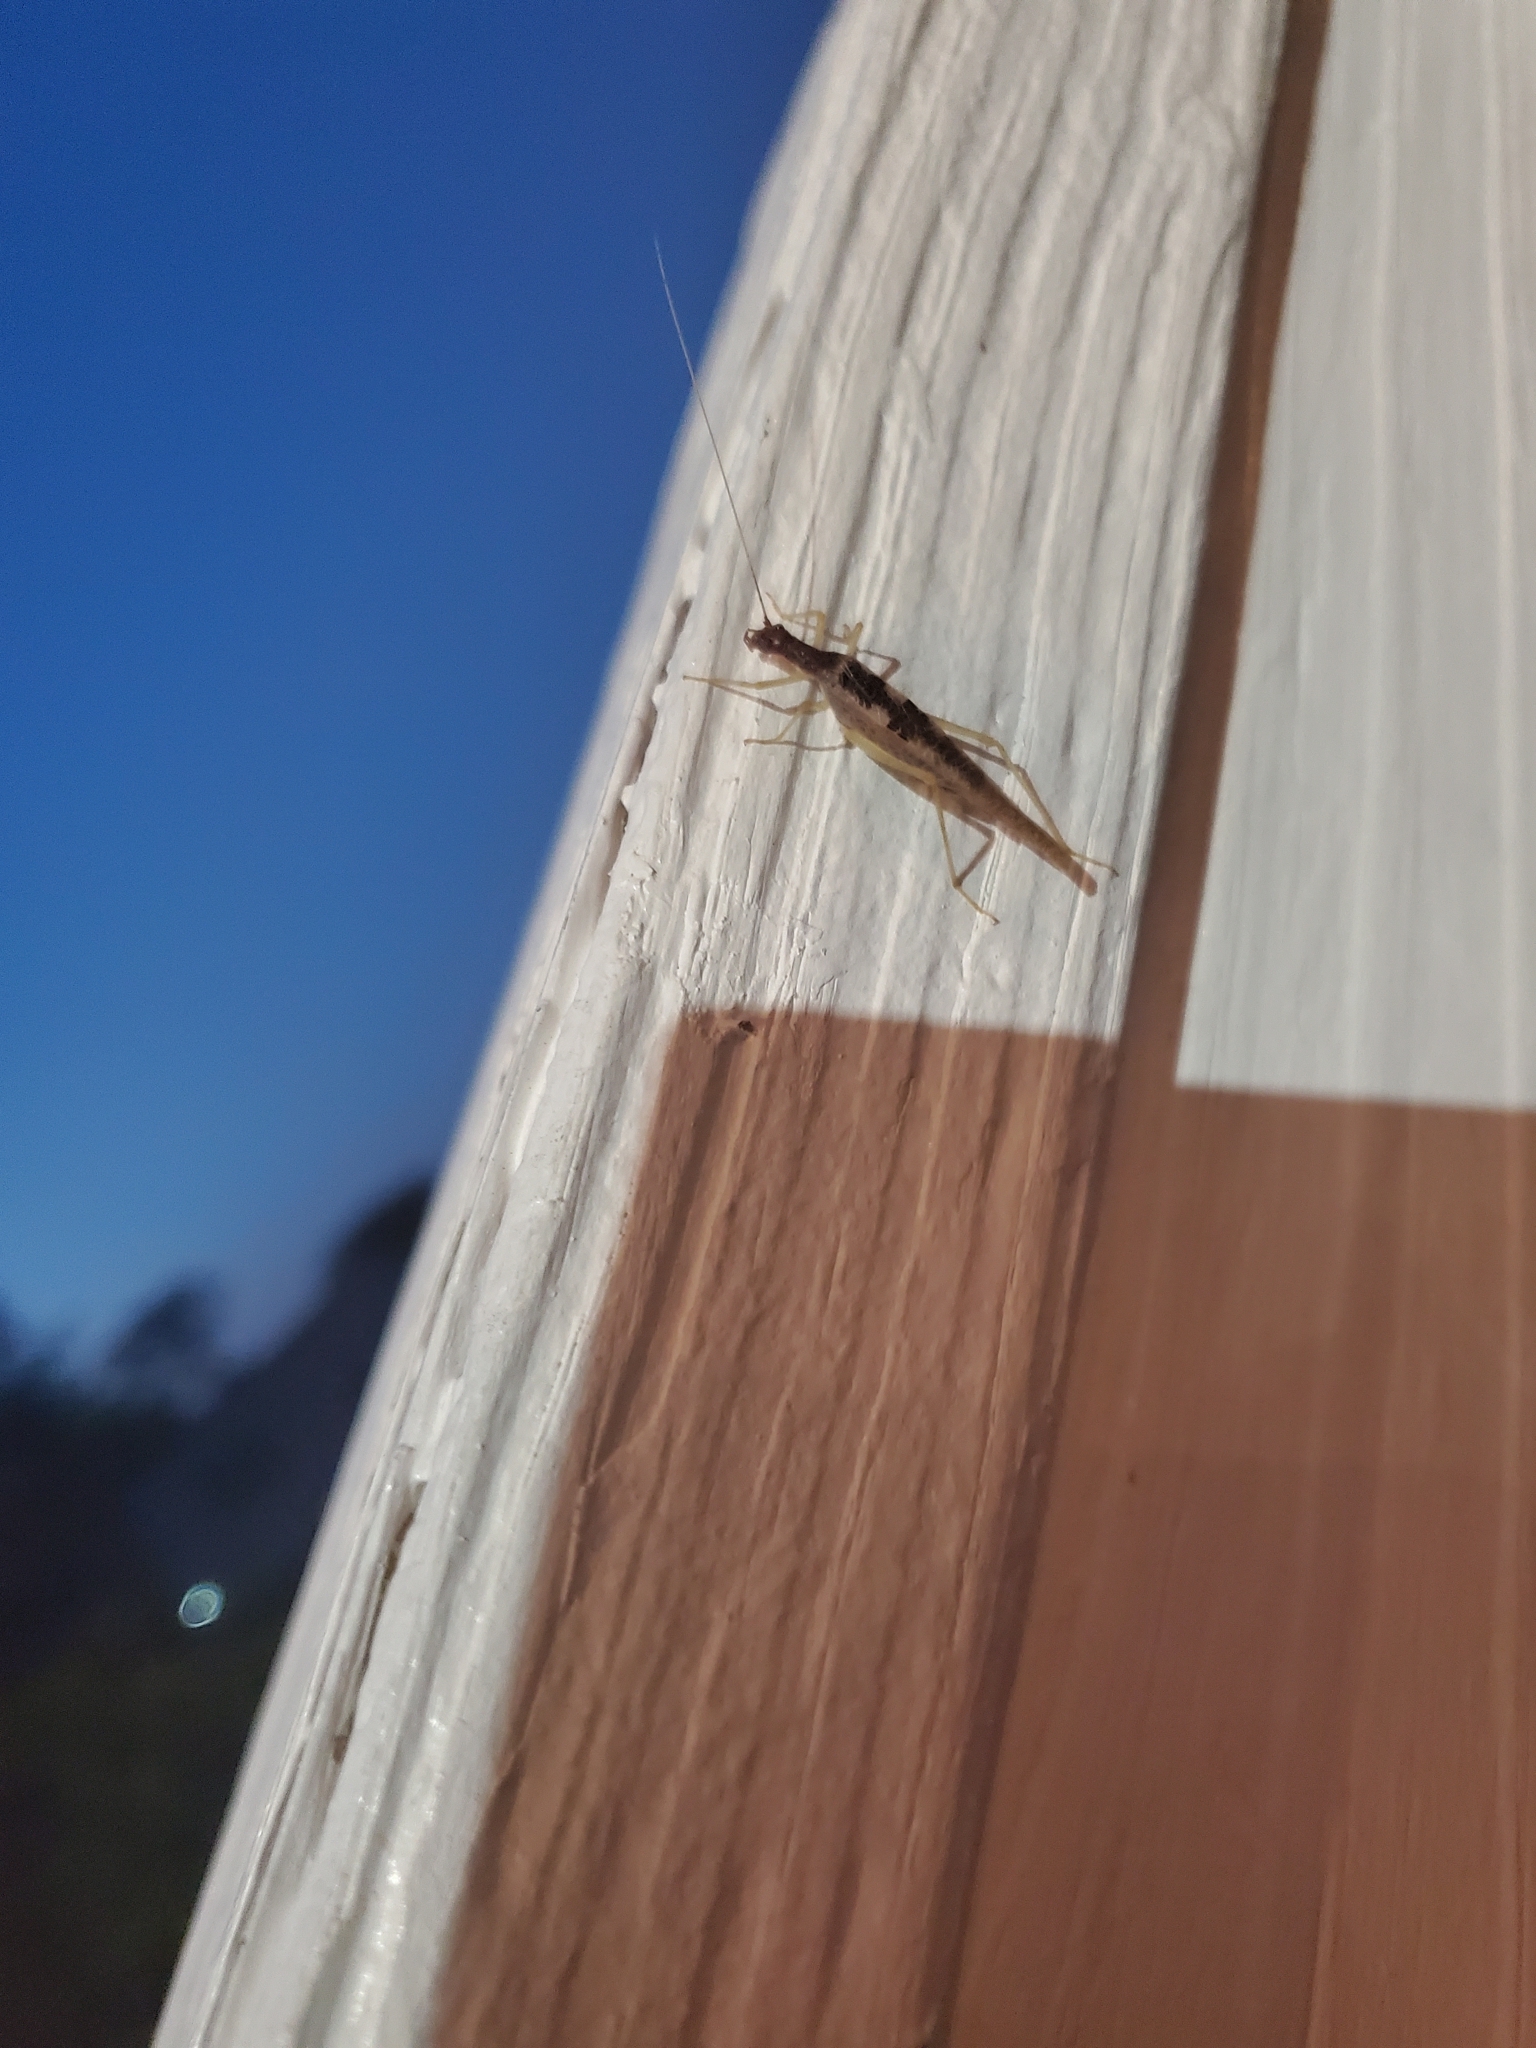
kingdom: Animalia
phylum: Arthropoda
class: Insecta
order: Orthoptera
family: Gryllidae
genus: Neoxabea
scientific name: Neoxabea bipunctata
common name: Two-spotted tree cricket
